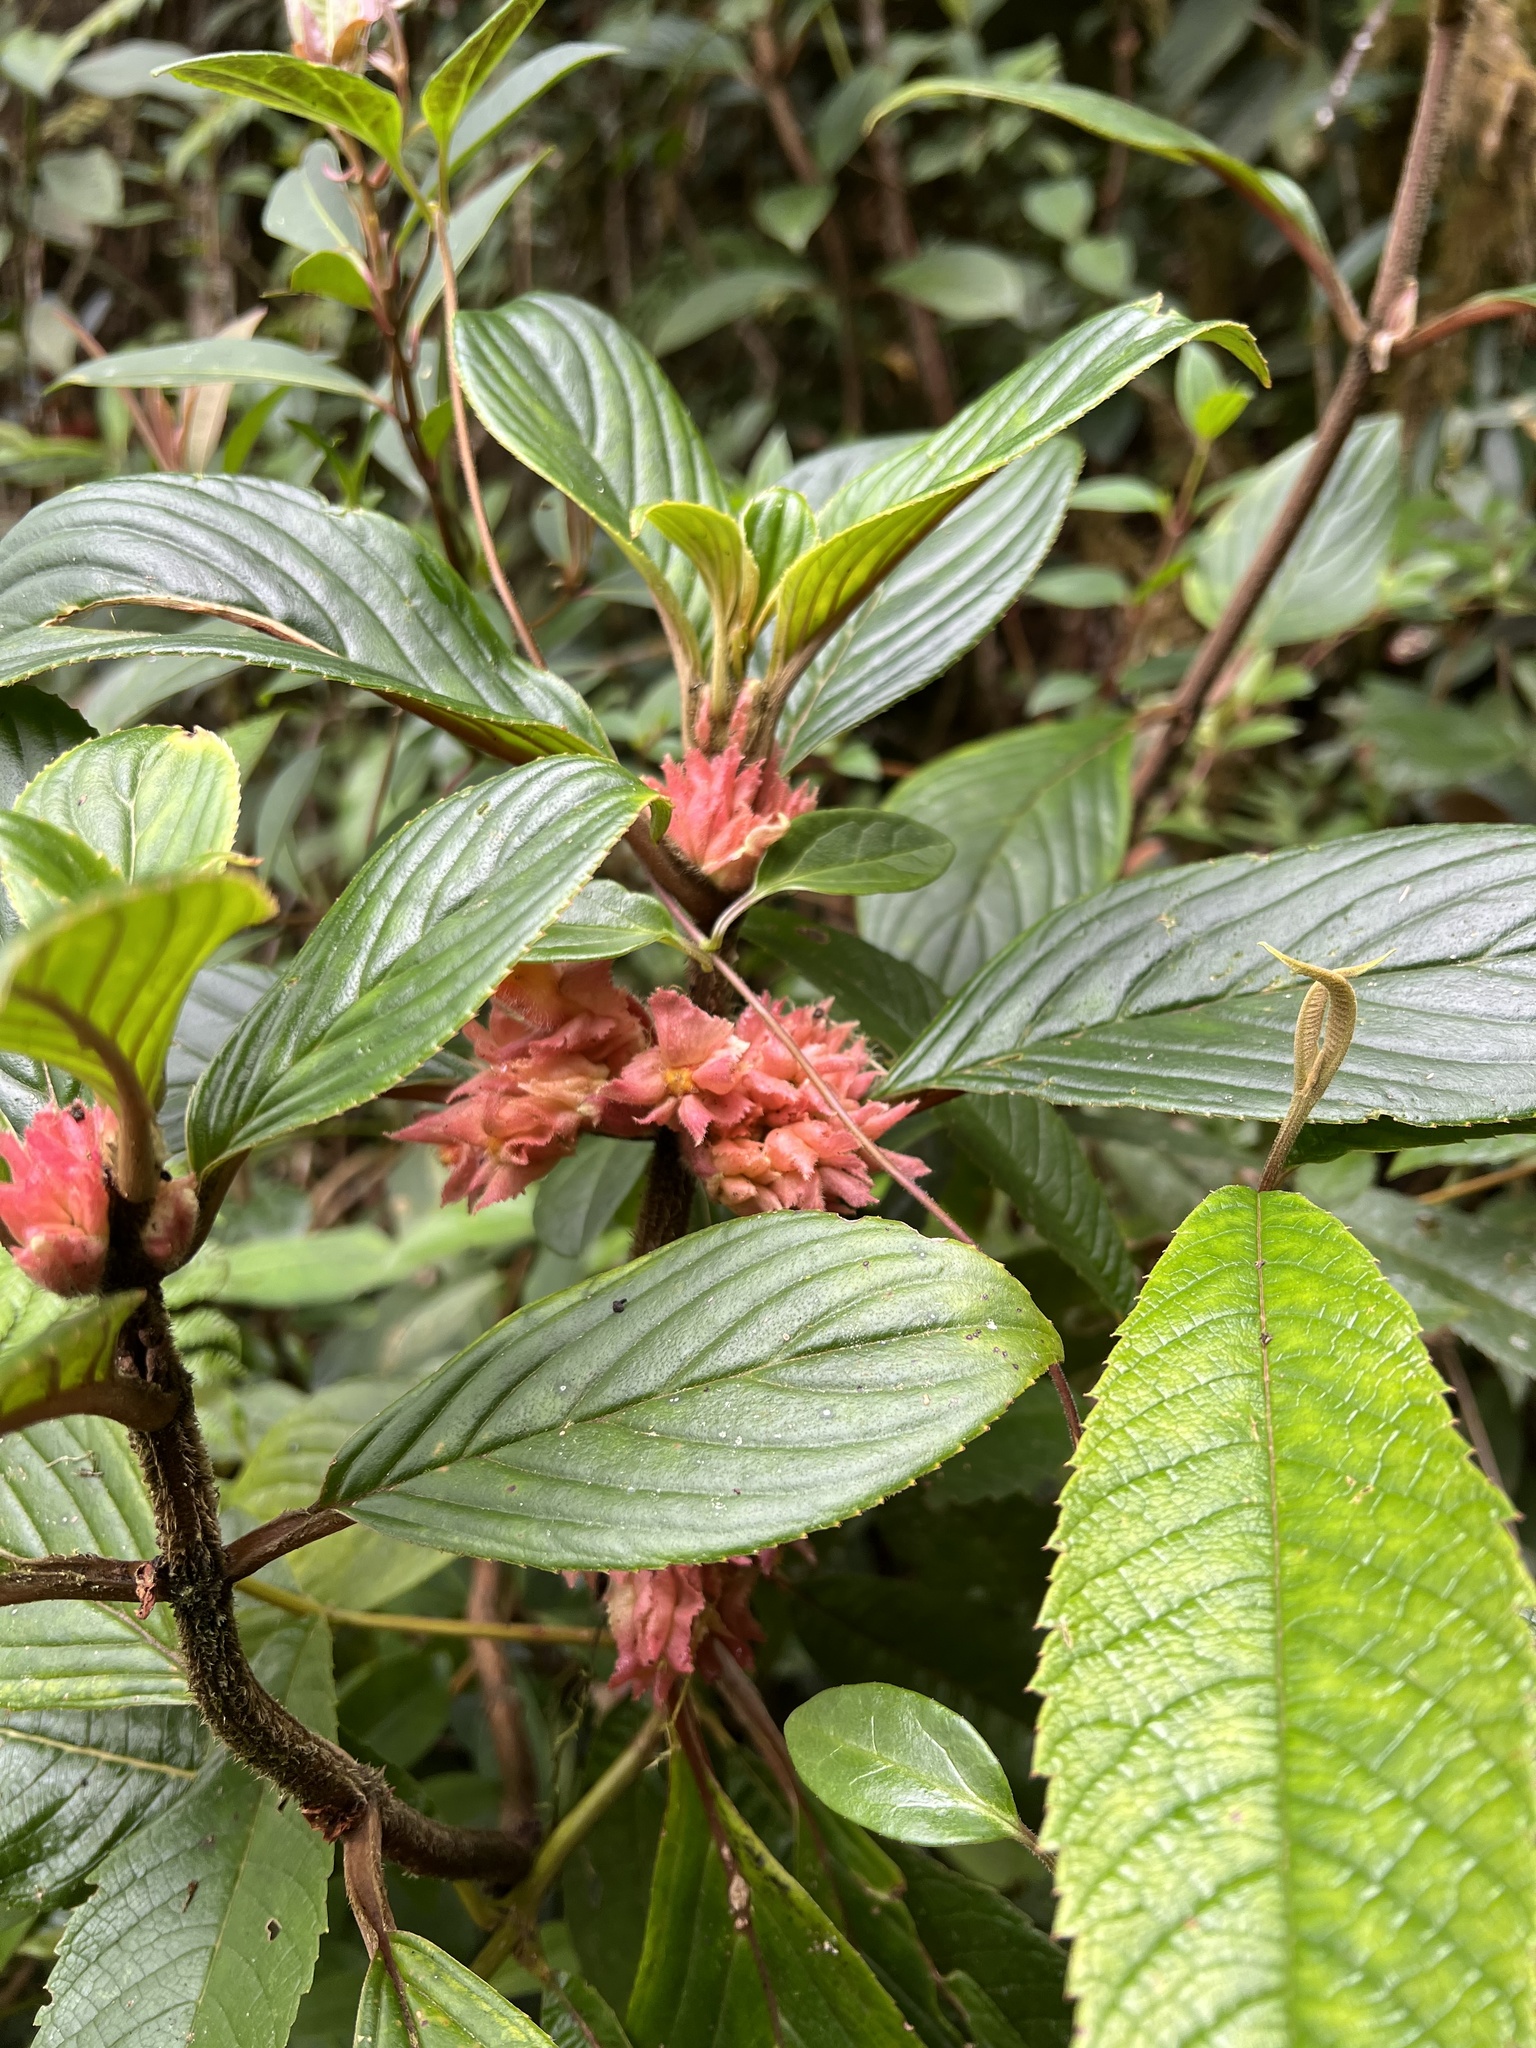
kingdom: Plantae
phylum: Tracheophyta
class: Magnoliopsida
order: Lamiales
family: Gesneriaceae
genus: Glossoloma
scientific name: Glossoloma ichthyoderma
